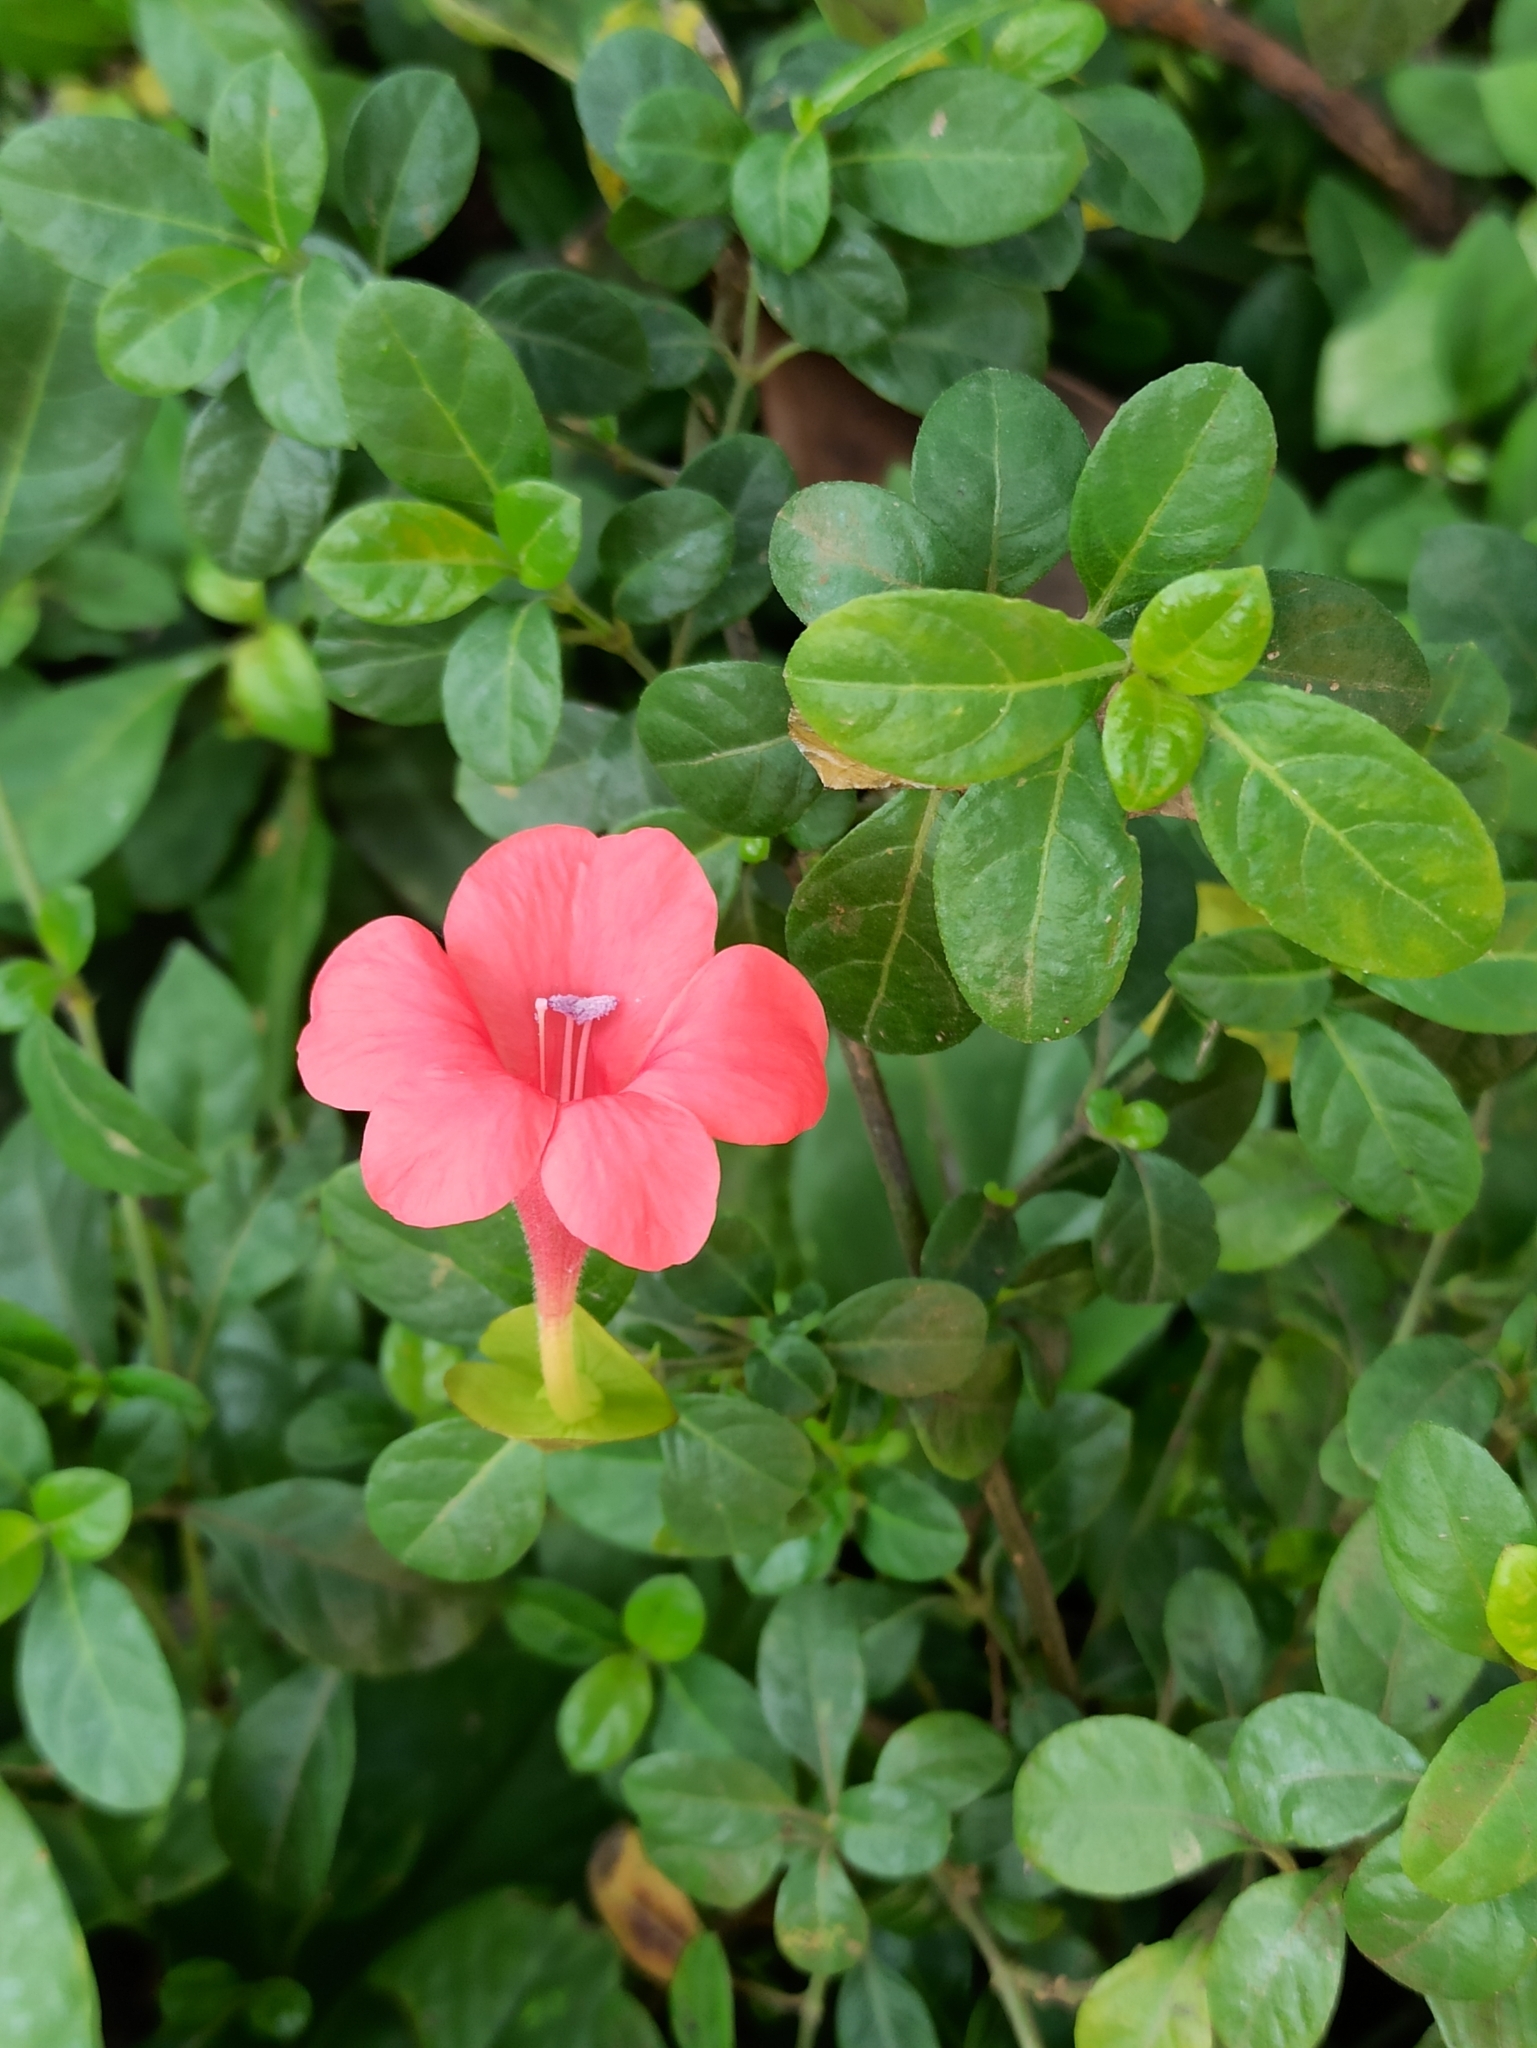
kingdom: Plantae
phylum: Tracheophyta
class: Magnoliopsida
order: Lamiales
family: Acanthaceae
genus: Barleria
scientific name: Barleria repens
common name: Pink-ruellia
